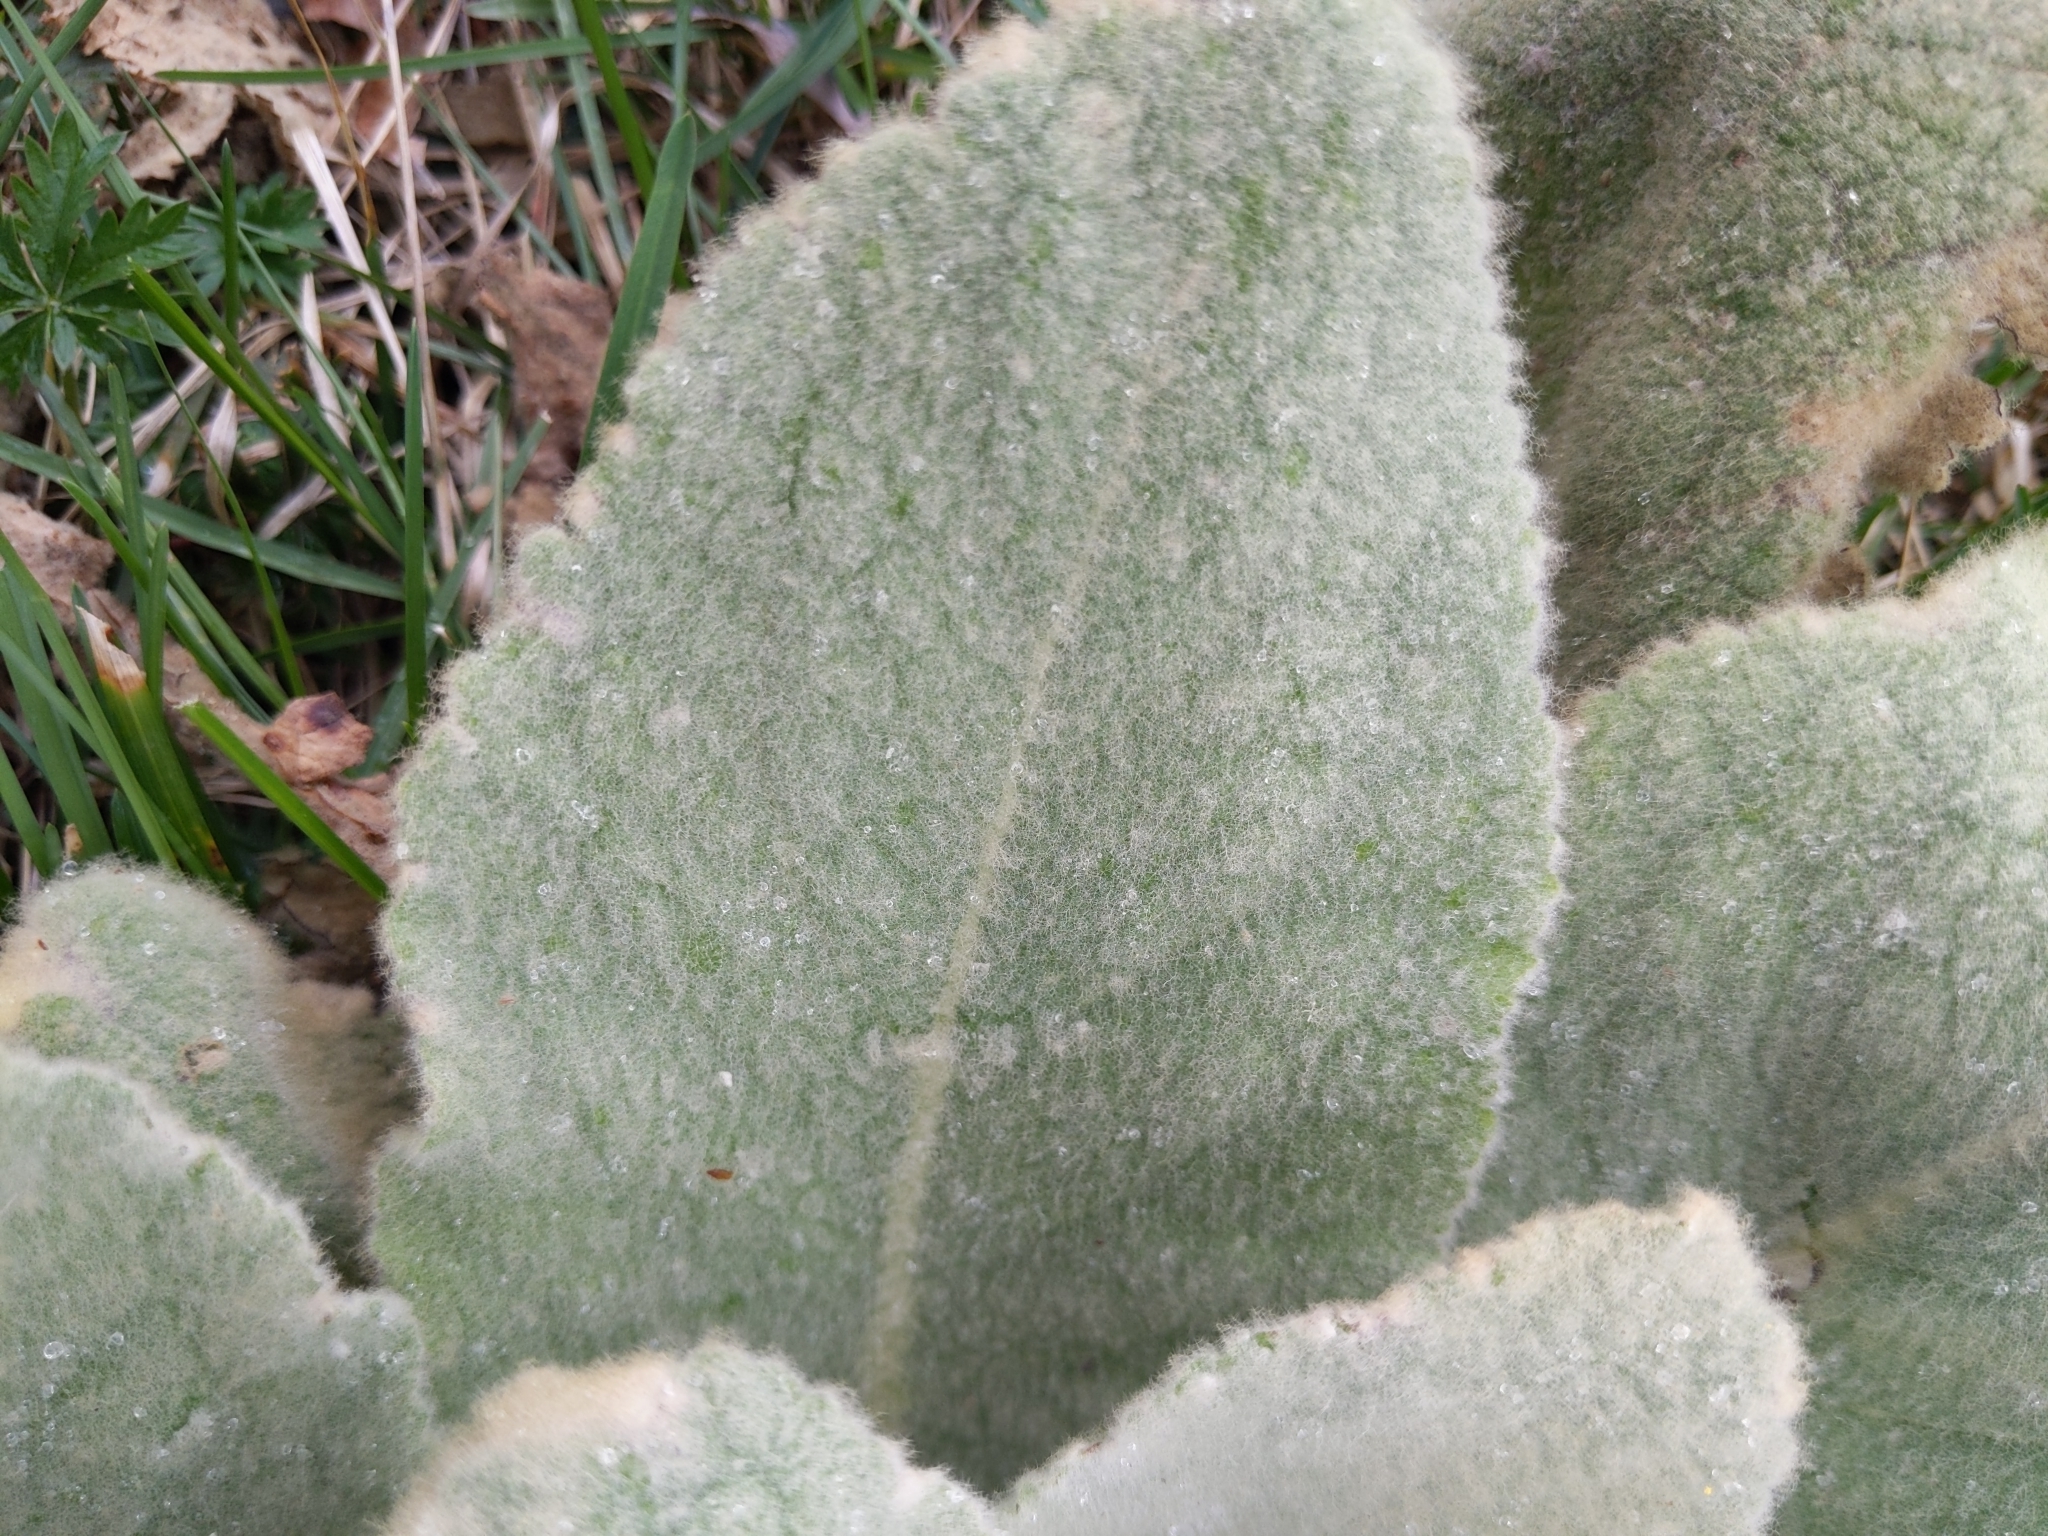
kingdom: Plantae
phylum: Tracheophyta
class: Magnoliopsida
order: Lamiales
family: Scrophulariaceae
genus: Verbascum
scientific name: Verbascum thapsus
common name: Common mullein
